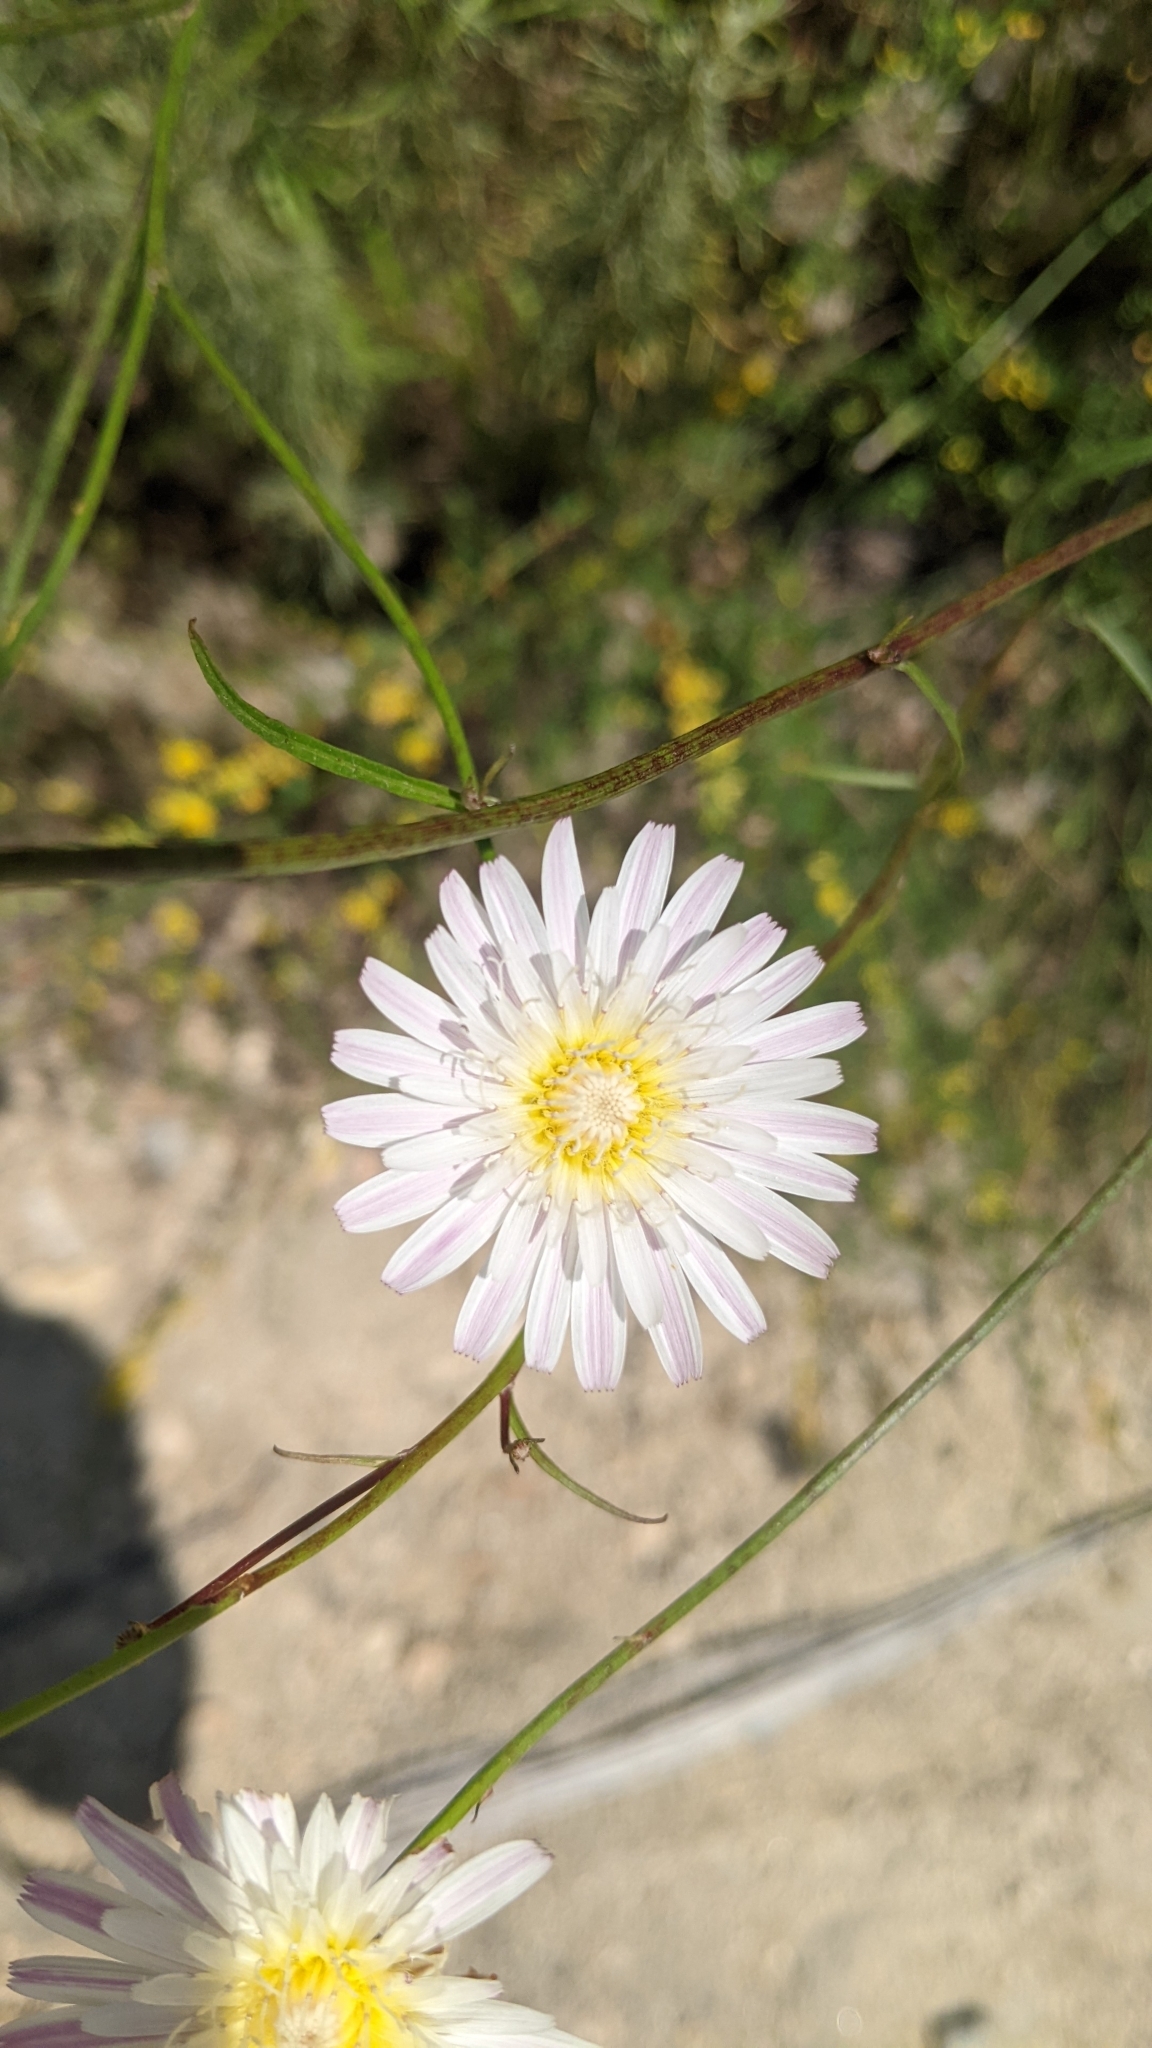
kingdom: Plantae
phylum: Tracheophyta
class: Magnoliopsida
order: Asterales
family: Asteraceae
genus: Malacothrix
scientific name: Malacothrix saxatilis
